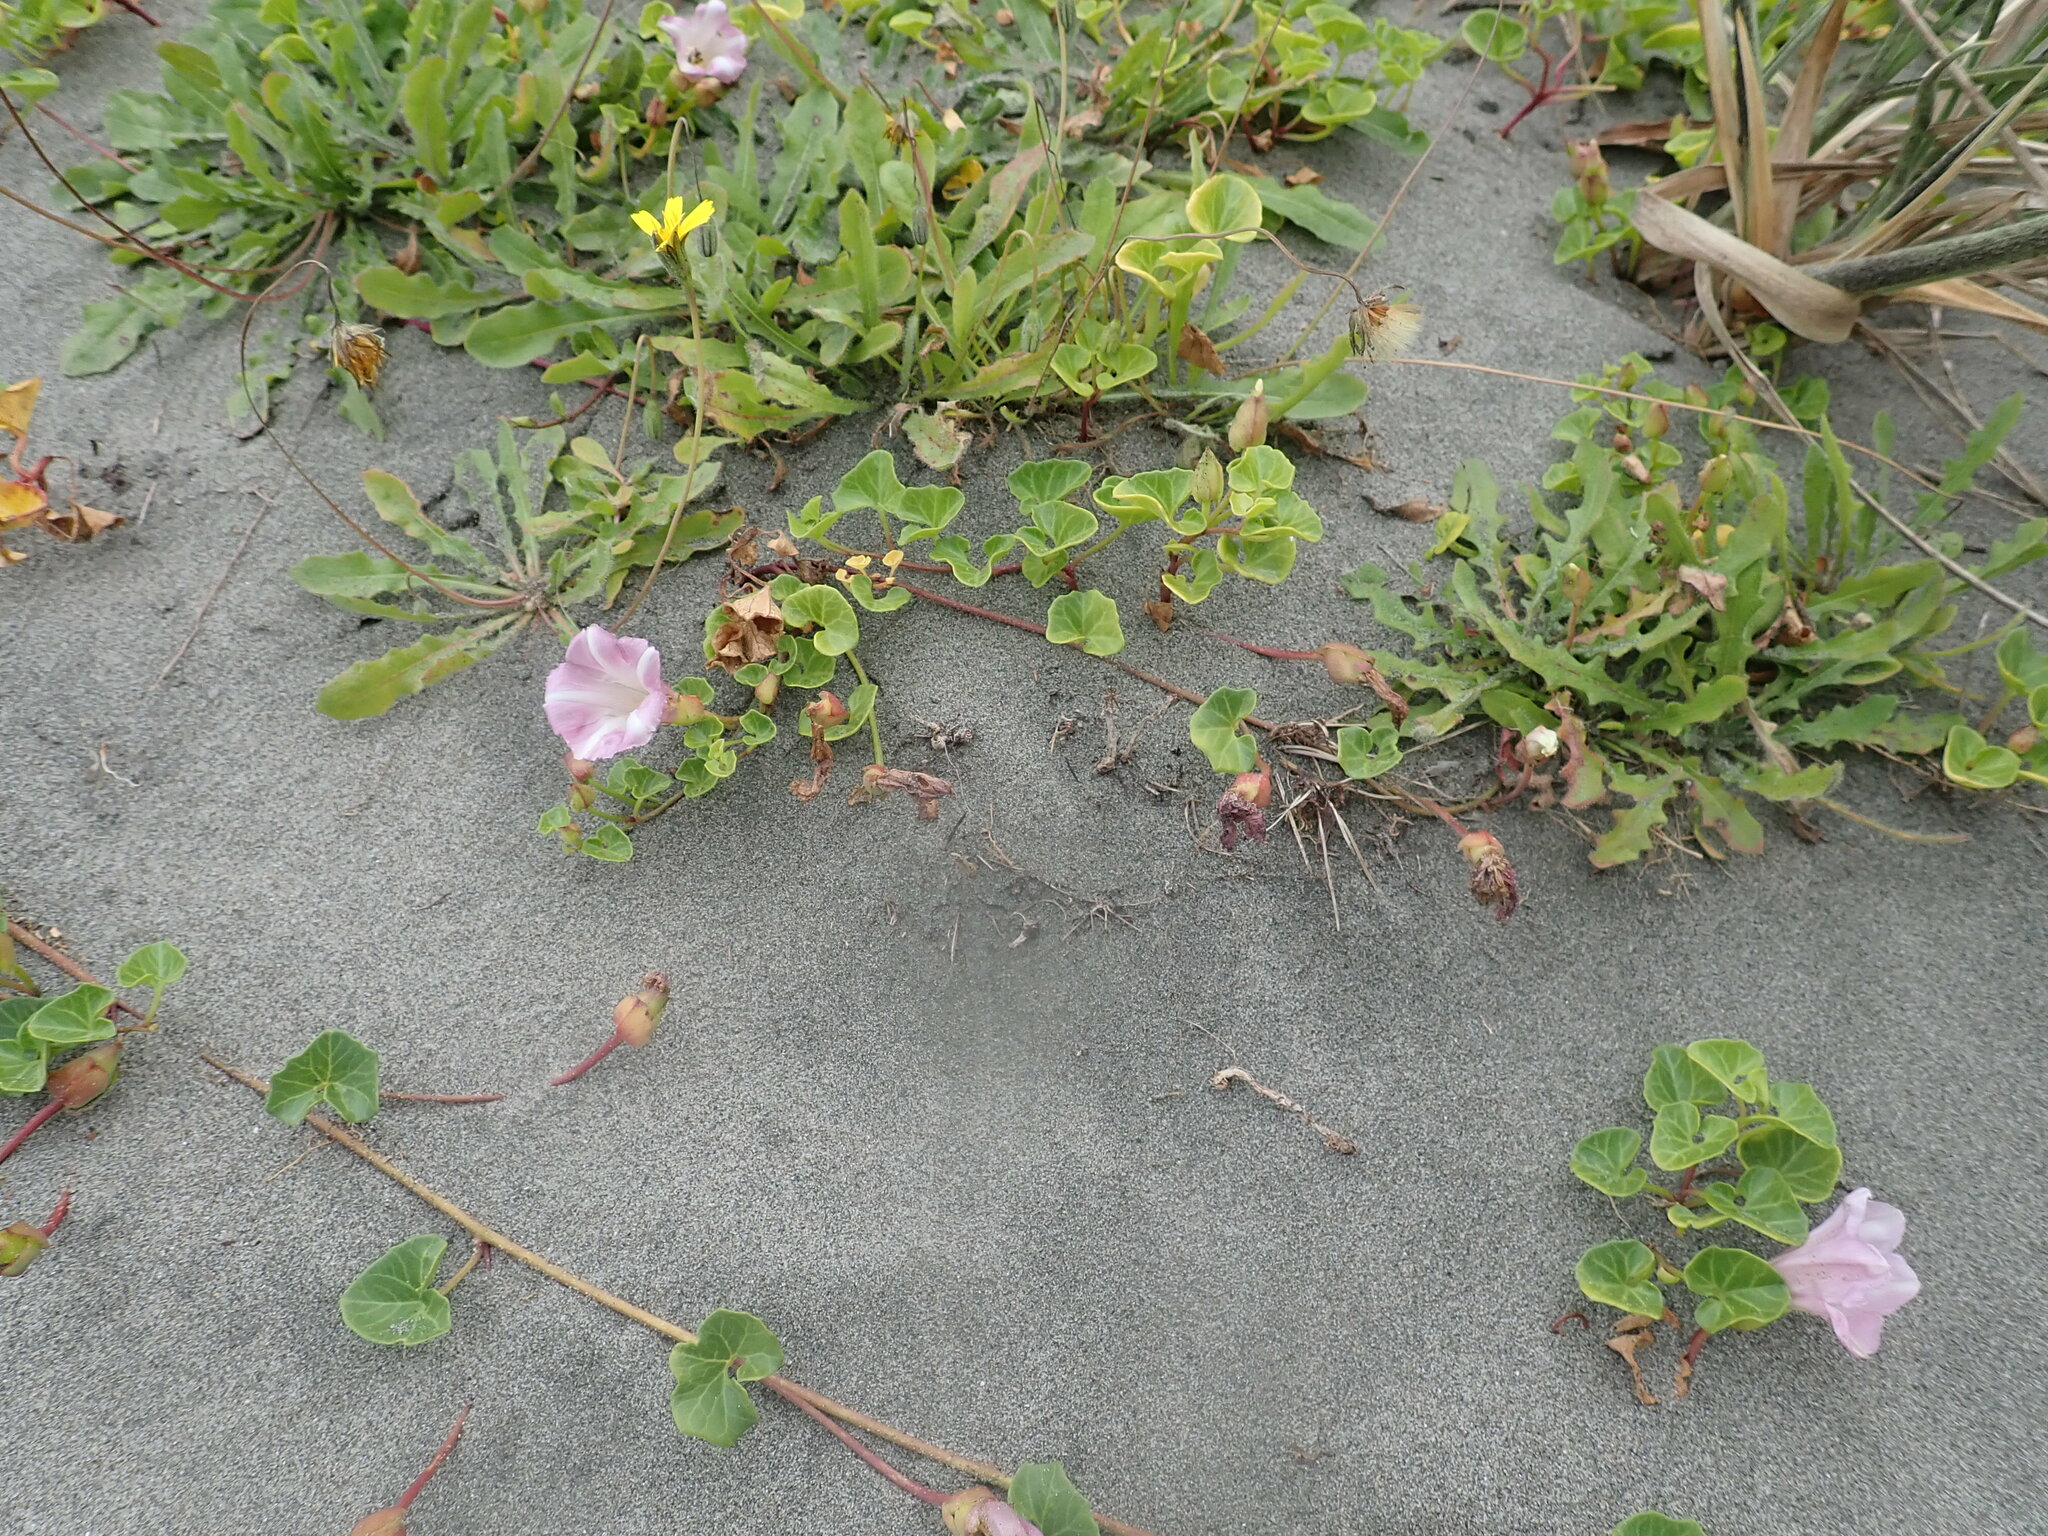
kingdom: Plantae
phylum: Tracheophyta
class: Magnoliopsida
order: Solanales
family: Convolvulaceae
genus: Calystegia
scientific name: Calystegia soldanella
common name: Sea bindweed
